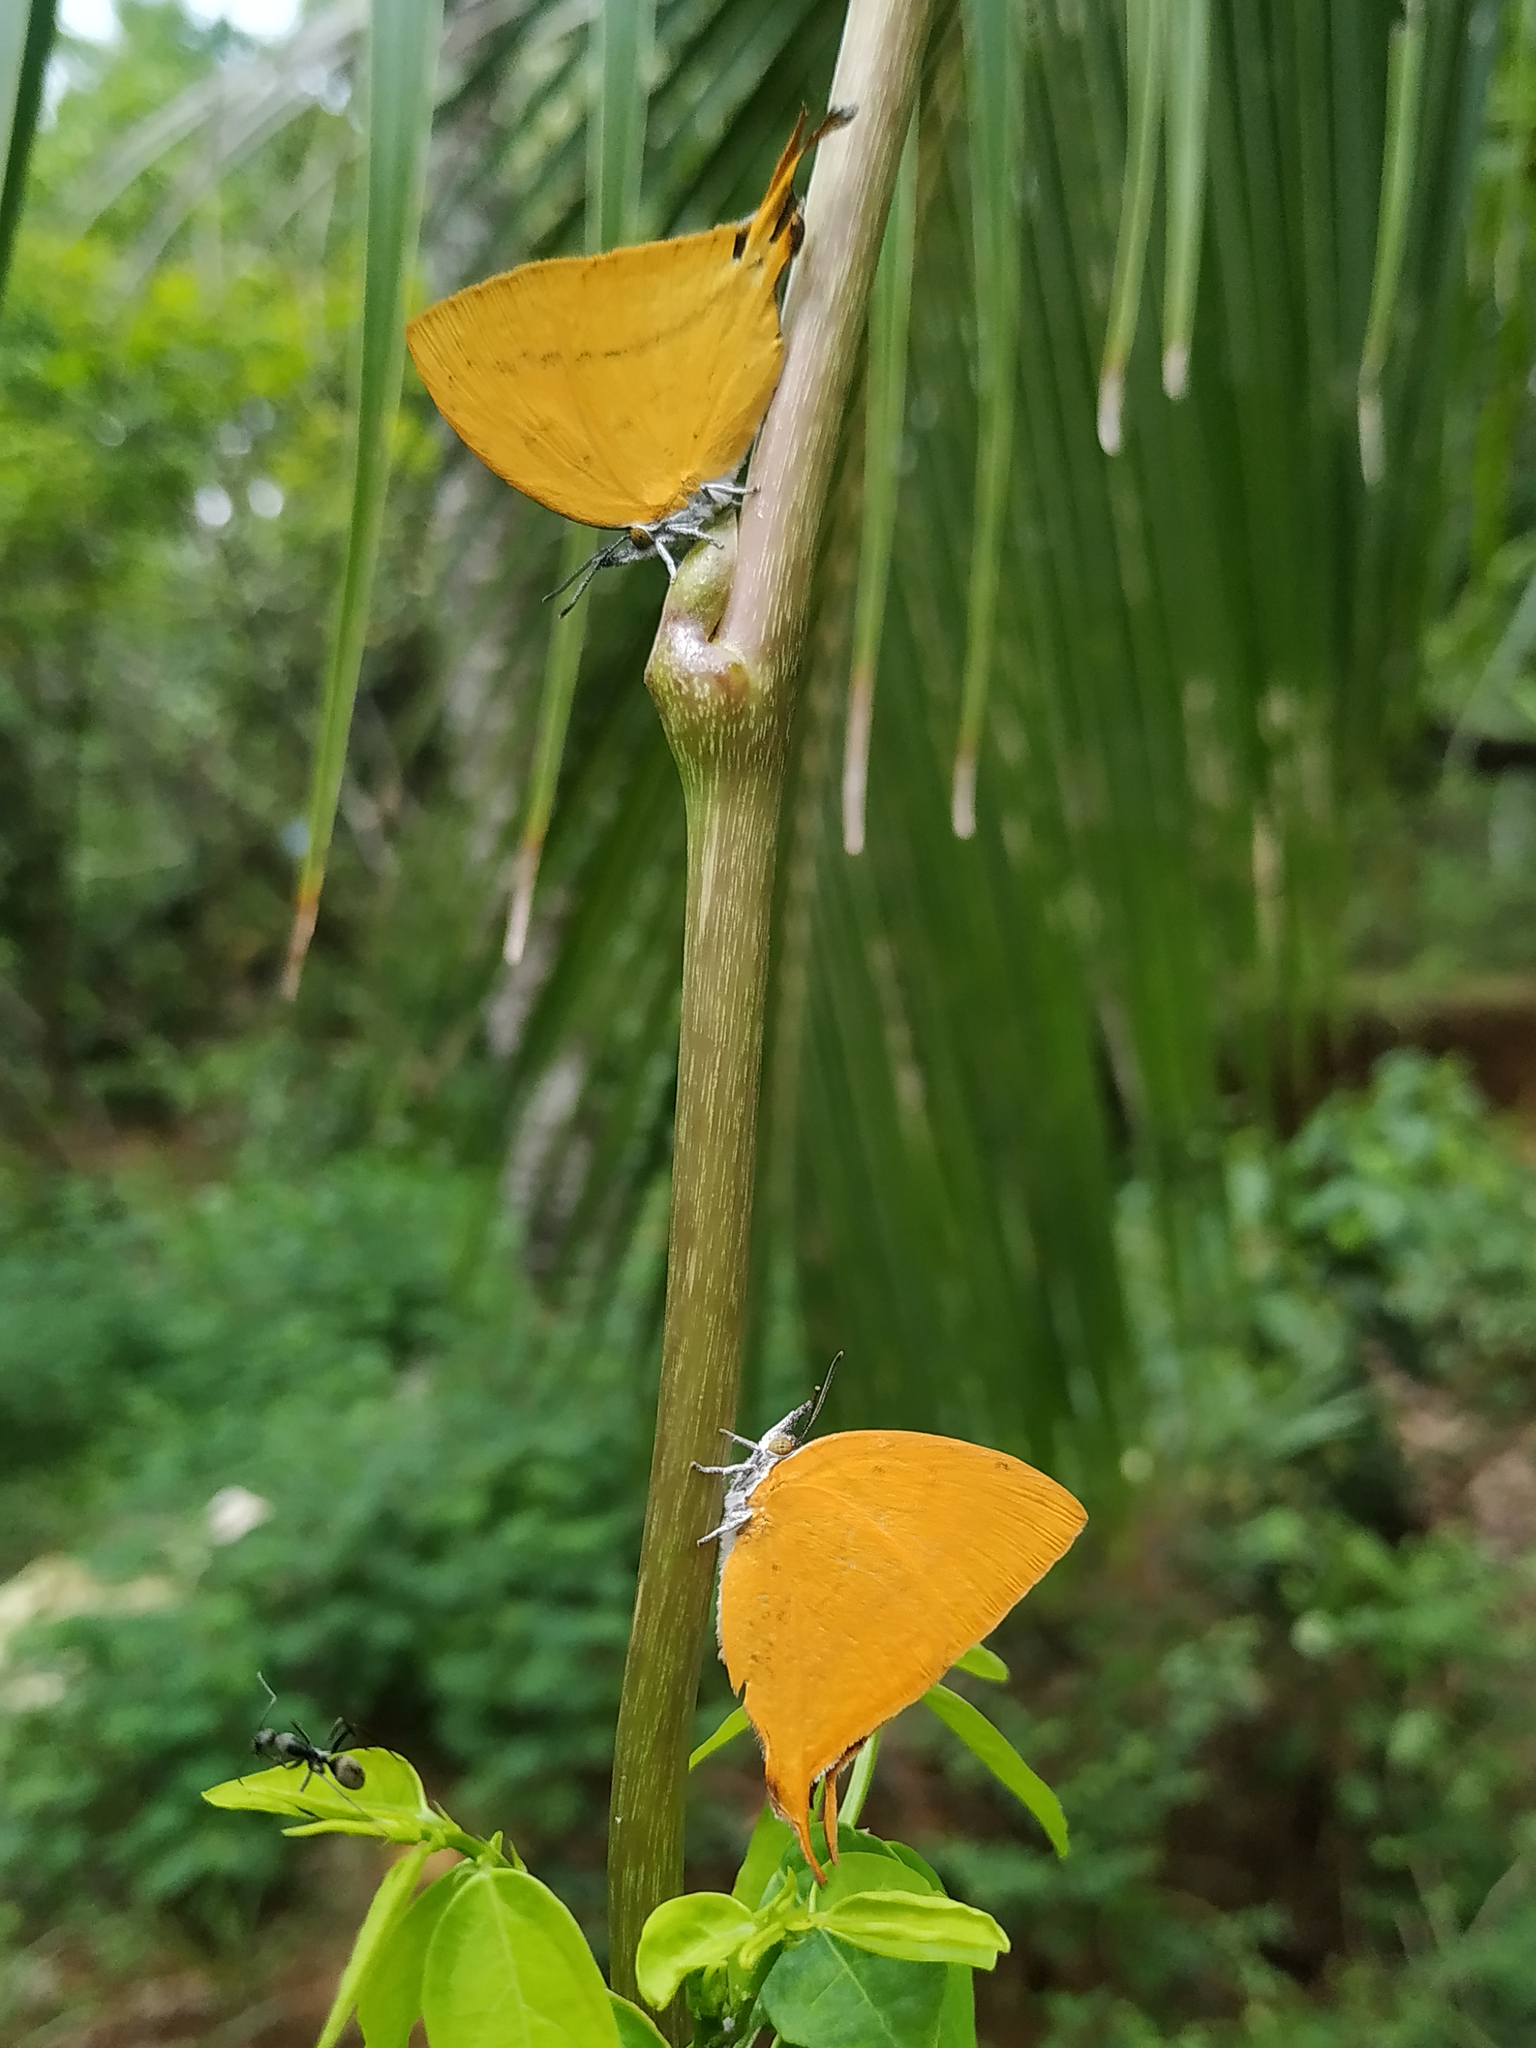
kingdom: Animalia
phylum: Arthropoda
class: Insecta
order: Lepidoptera
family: Lycaenidae
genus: Loxura
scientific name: Loxura atymnus
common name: Common yamfly
